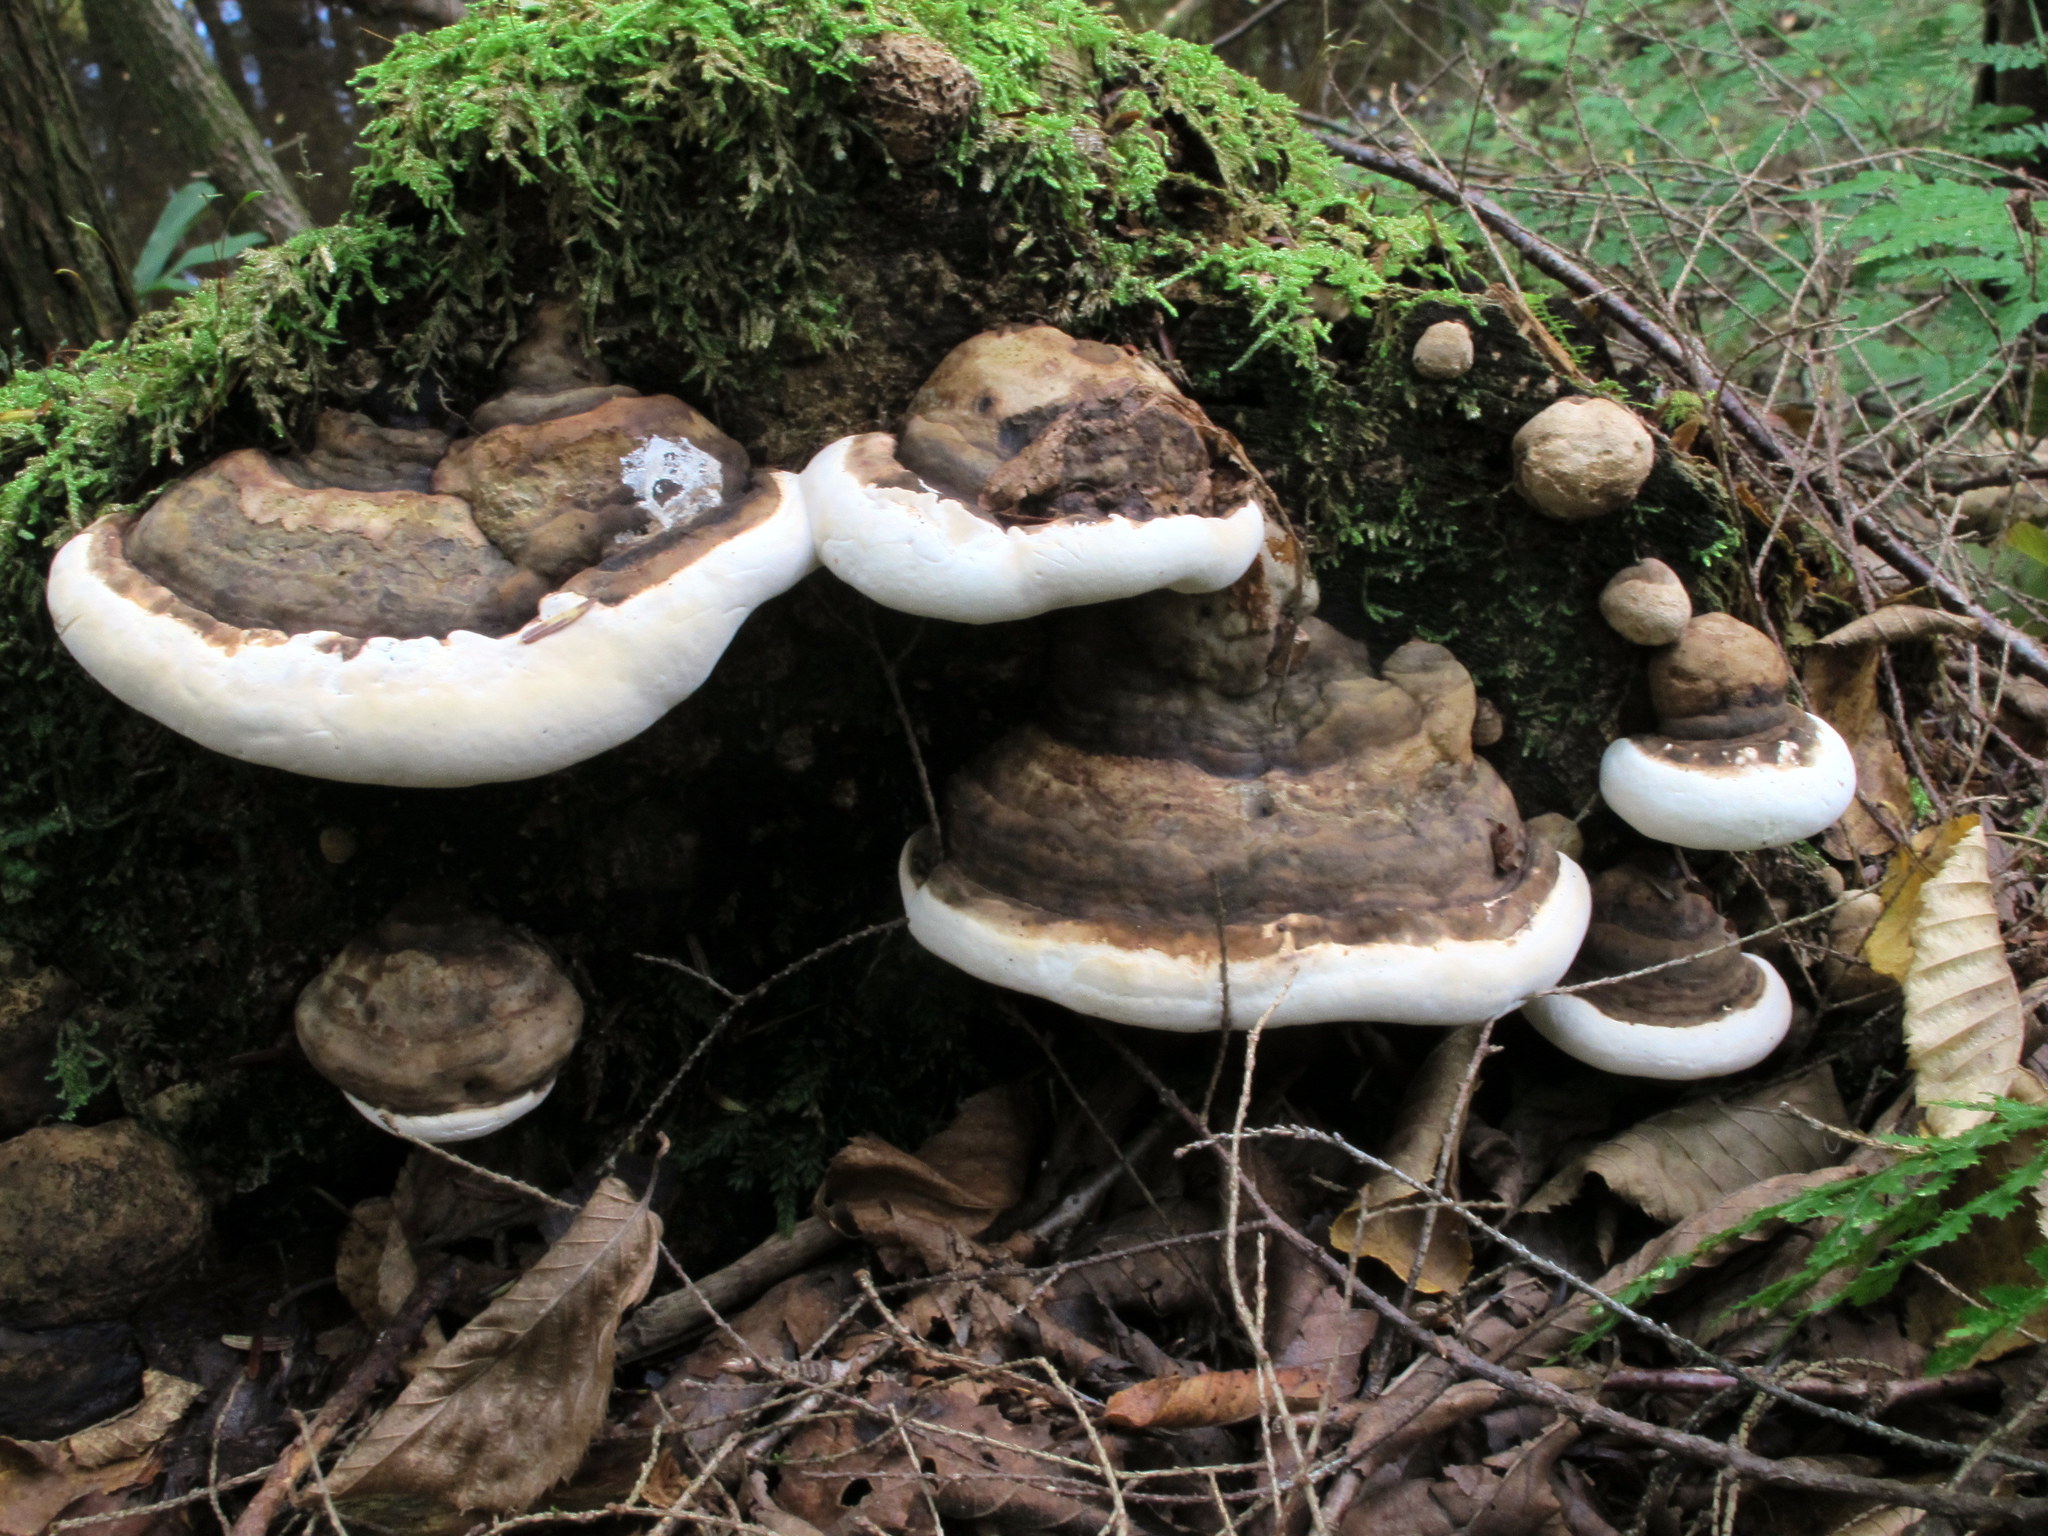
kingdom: Fungi
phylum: Basidiomycota
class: Agaricomycetes
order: Polyporales
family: Fomitopsidaceae
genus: Fomitopsis
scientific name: Fomitopsis ochracea
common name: American brown fomitopsis
